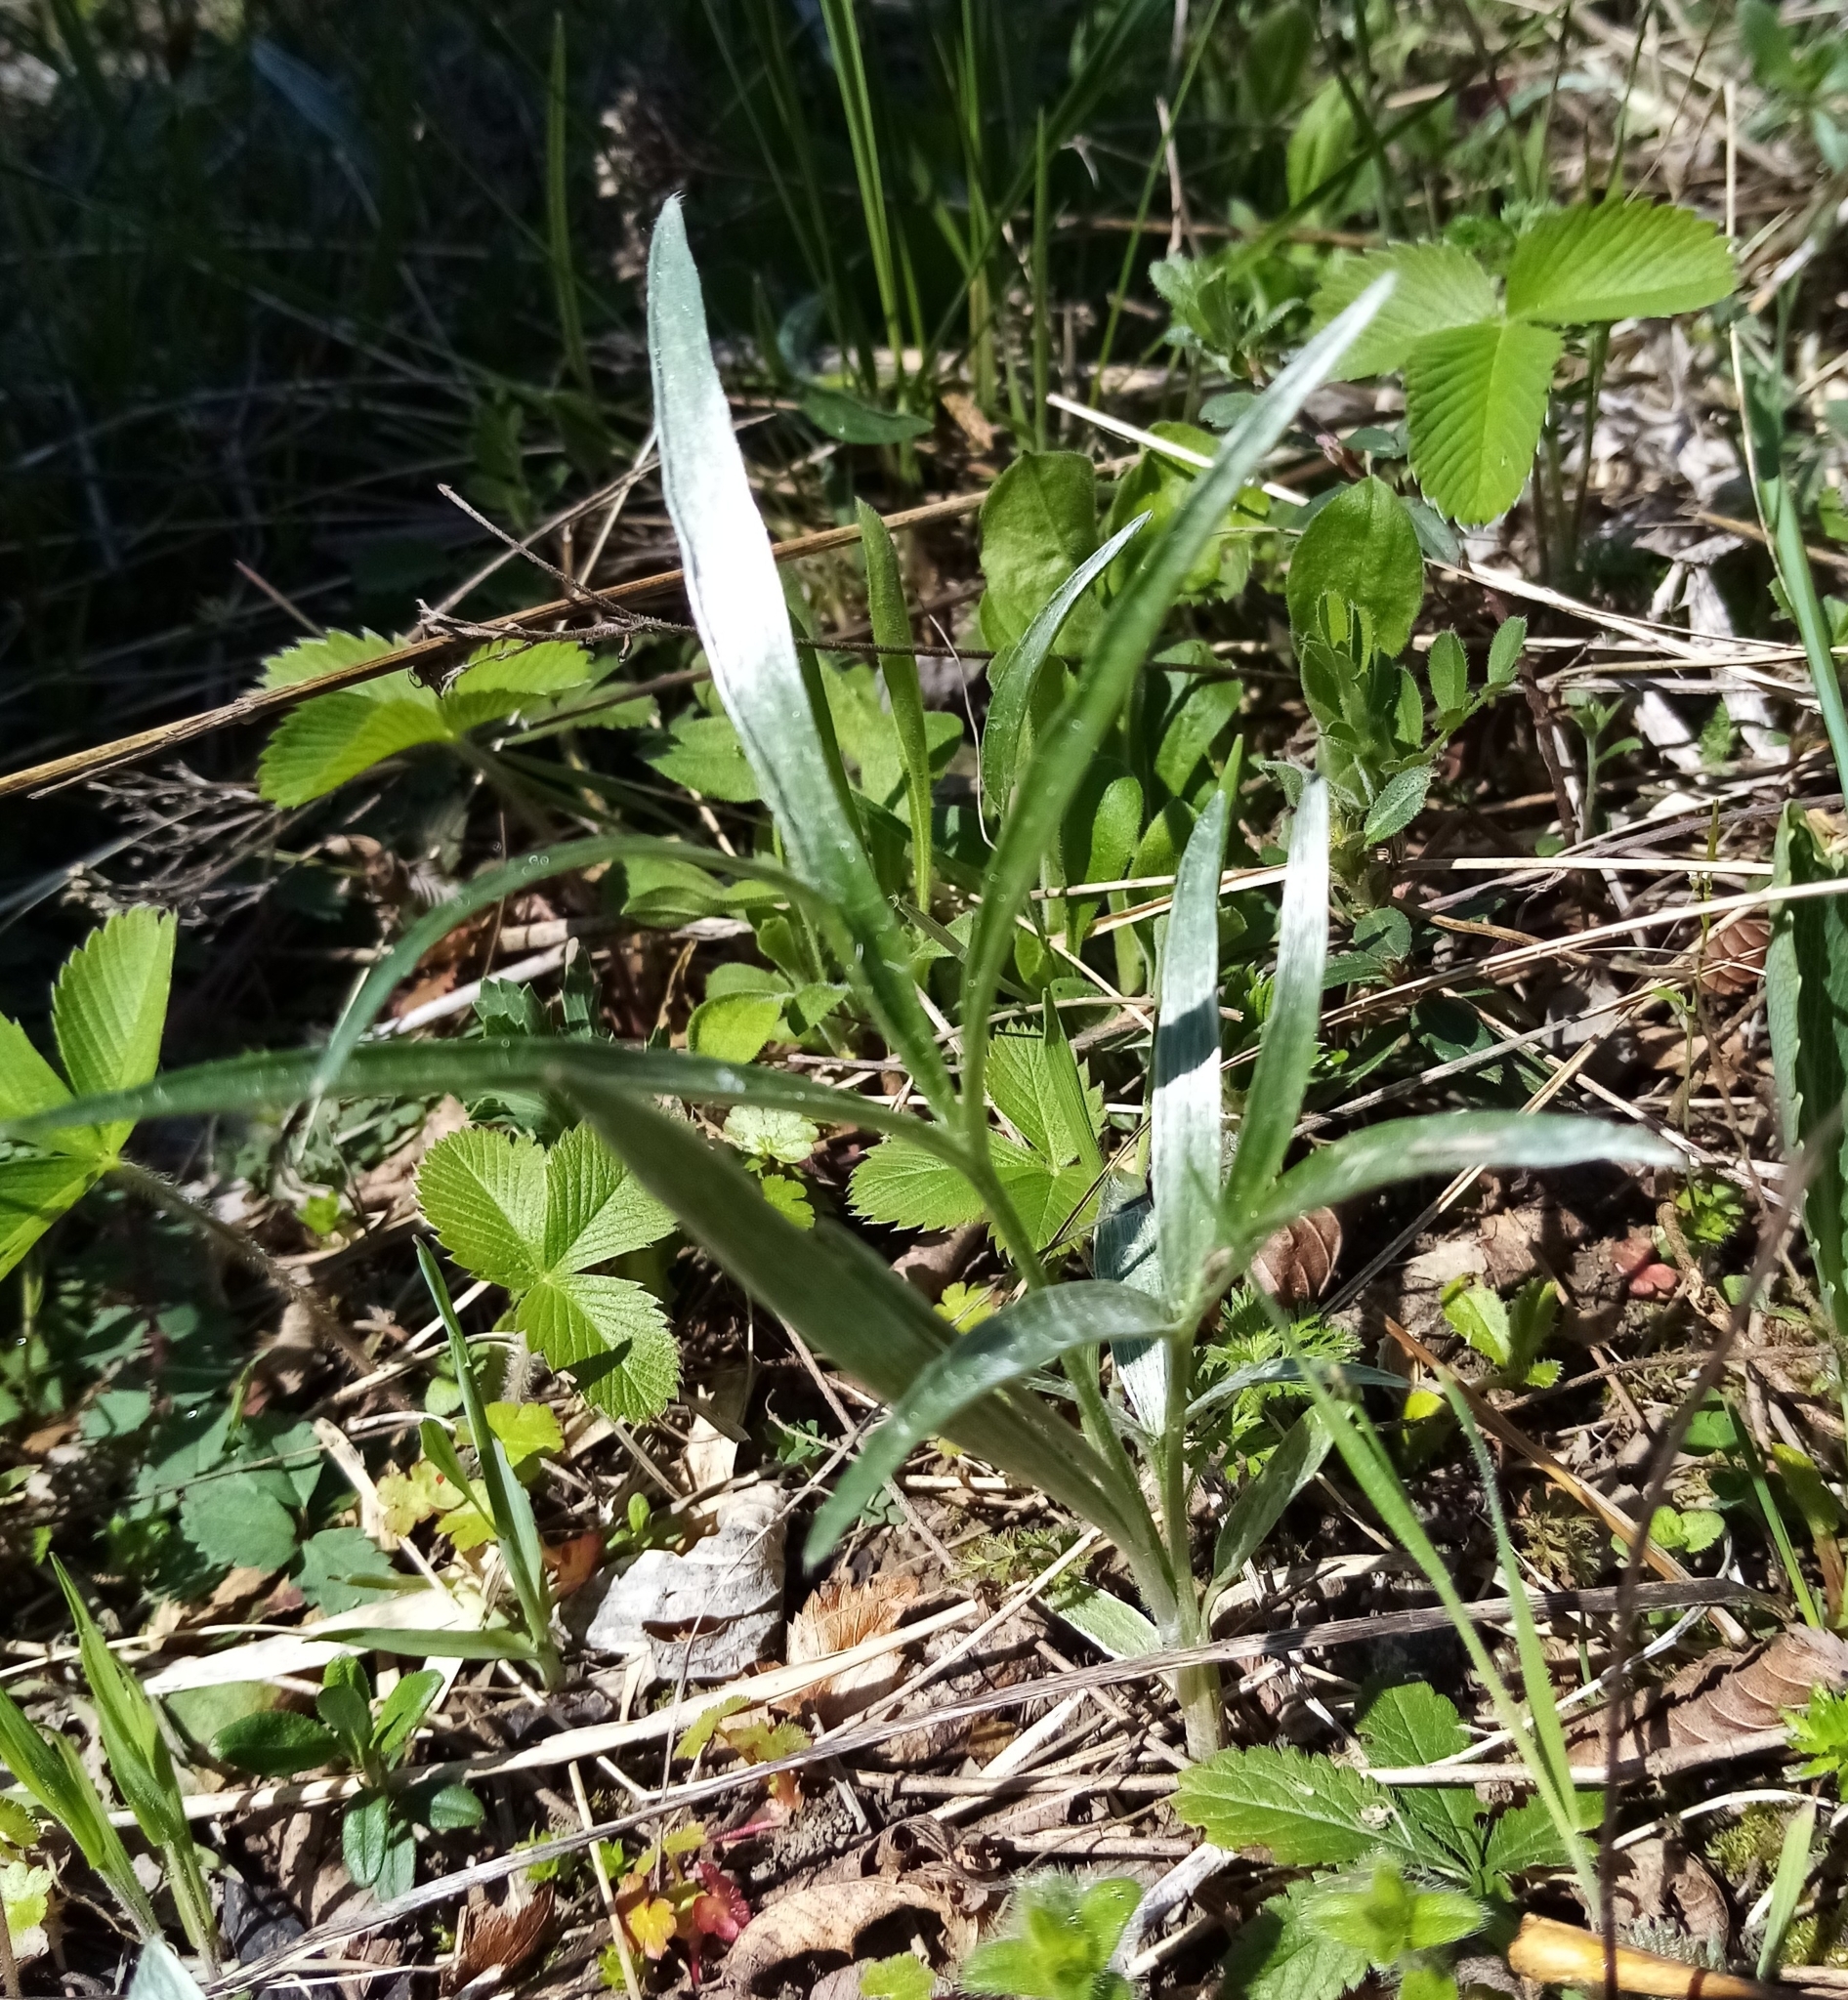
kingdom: Plantae
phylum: Tracheophyta
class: Magnoliopsida
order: Ranunculales
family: Ranunculaceae
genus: Ranunculus
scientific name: Ranunculus illyricus
